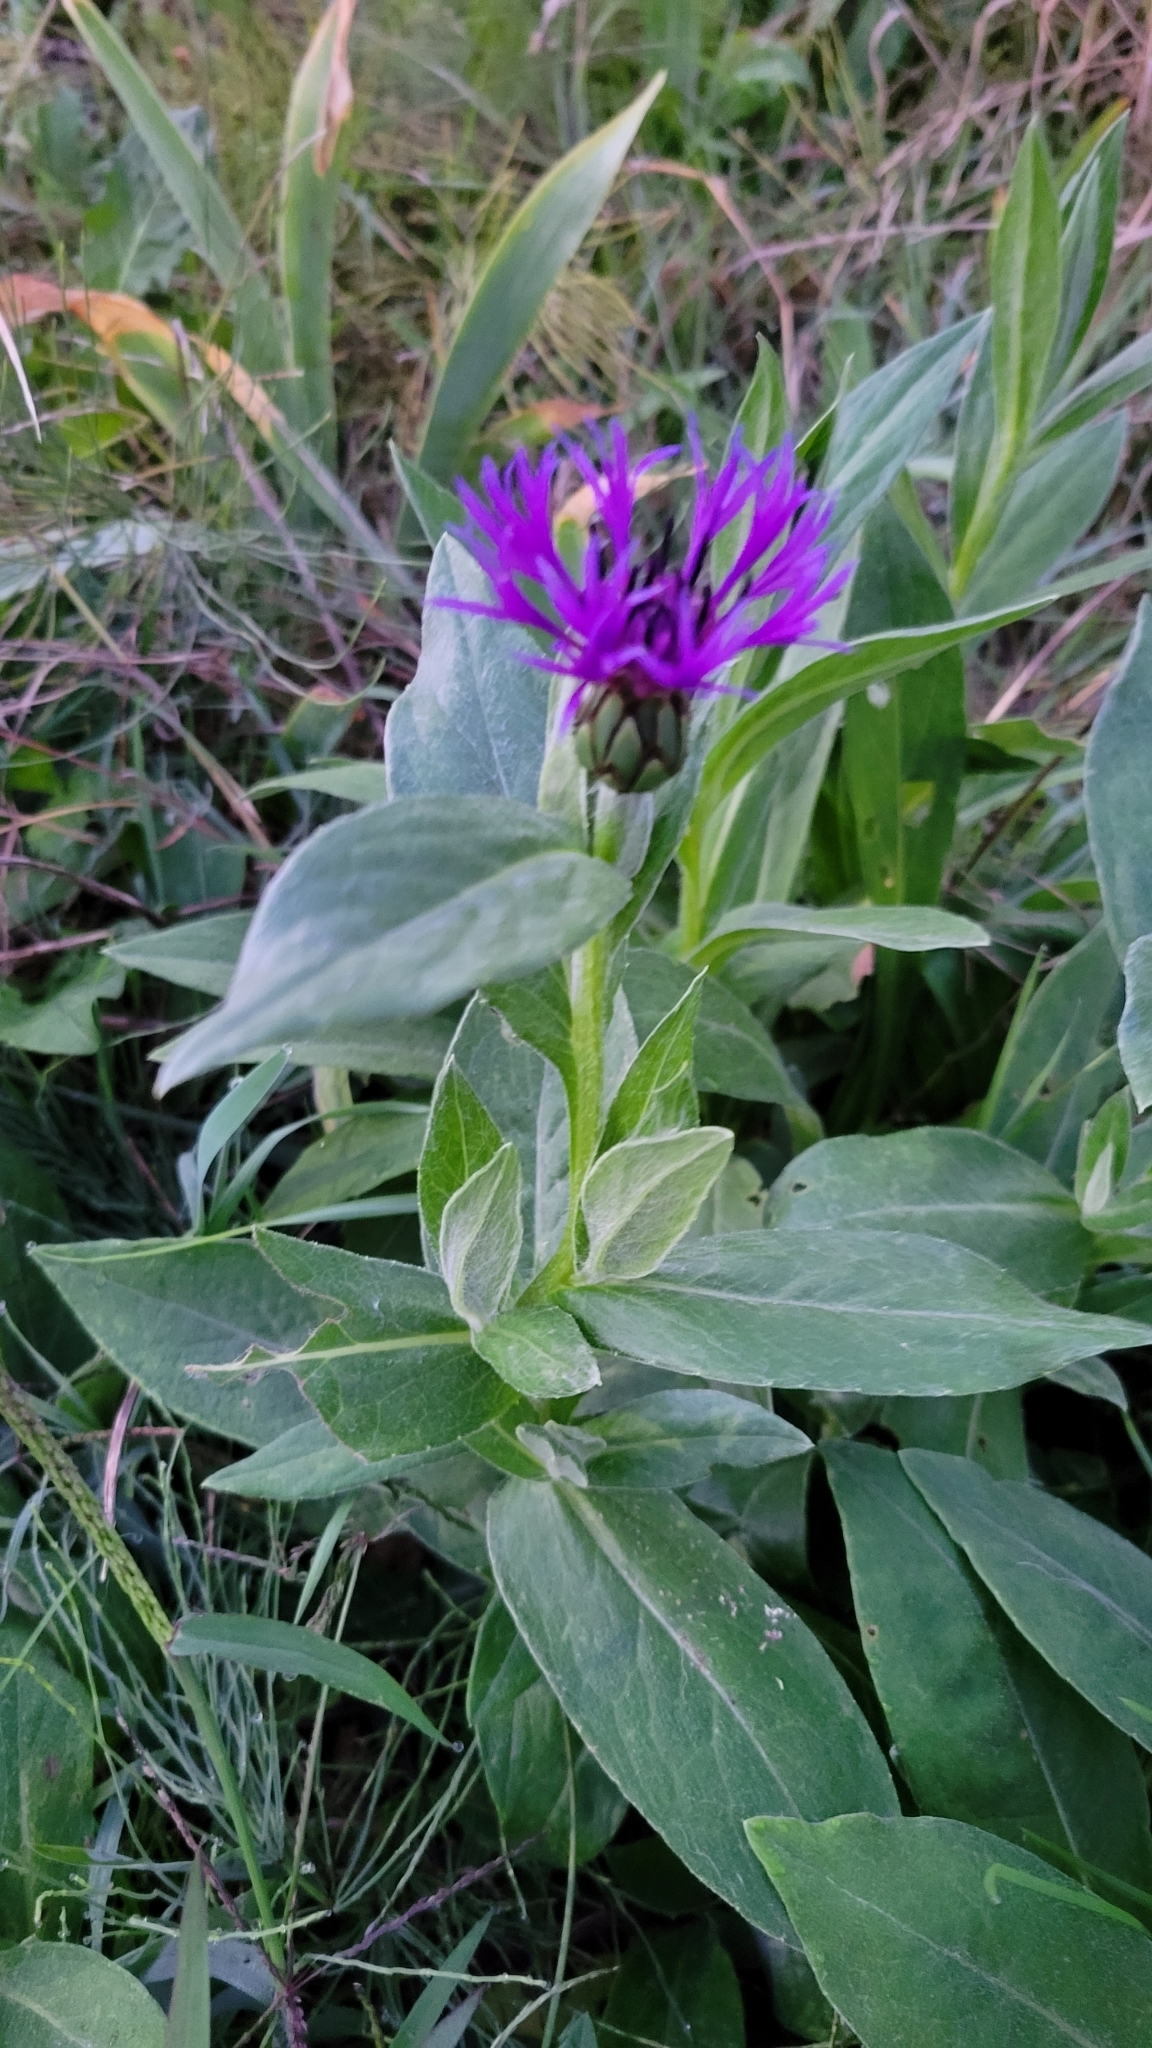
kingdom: Plantae
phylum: Tracheophyta
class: Magnoliopsida
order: Asterales
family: Asteraceae
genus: Centaurea
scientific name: Centaurea montana
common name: Perennial cornflower
